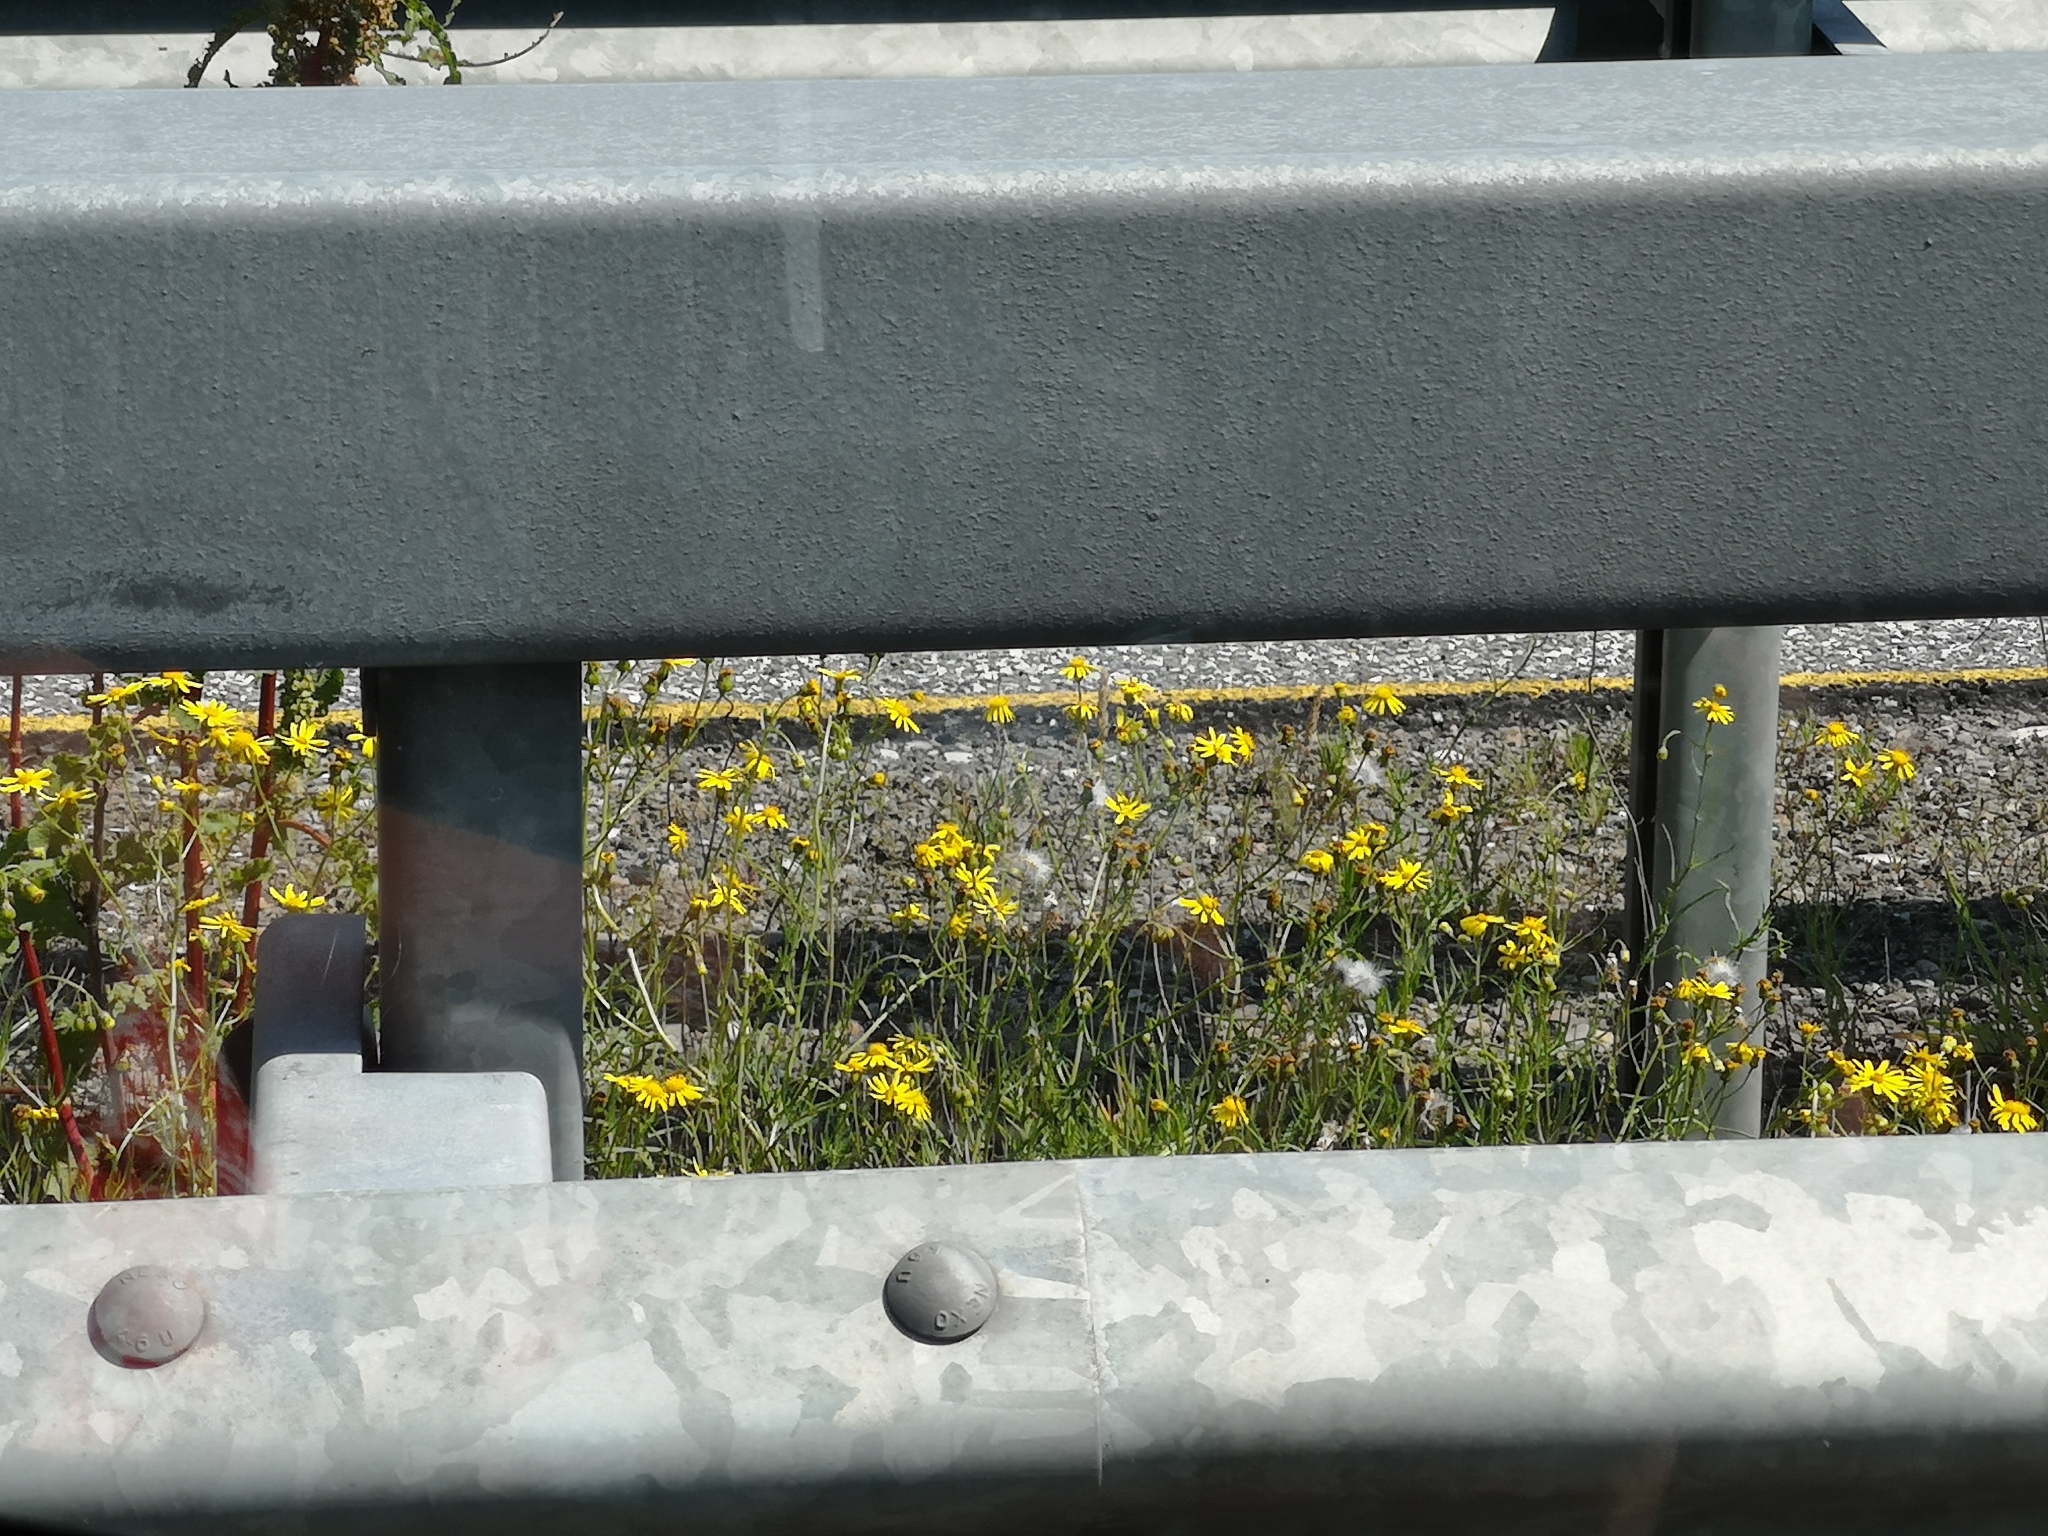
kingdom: Plantae
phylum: Tracheophyta
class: Magnoliopsida
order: Asterales
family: Asteraceae
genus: Senecio
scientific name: Senecio inaequidens
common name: Narrow-leaved ragwort
